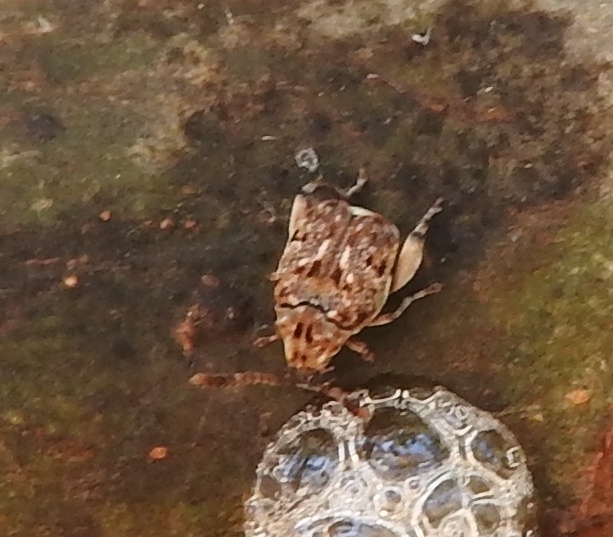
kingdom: Animalia
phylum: Arthropoda
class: Insecta
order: Coleoptera
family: Bruchidae
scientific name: Bruchidae
